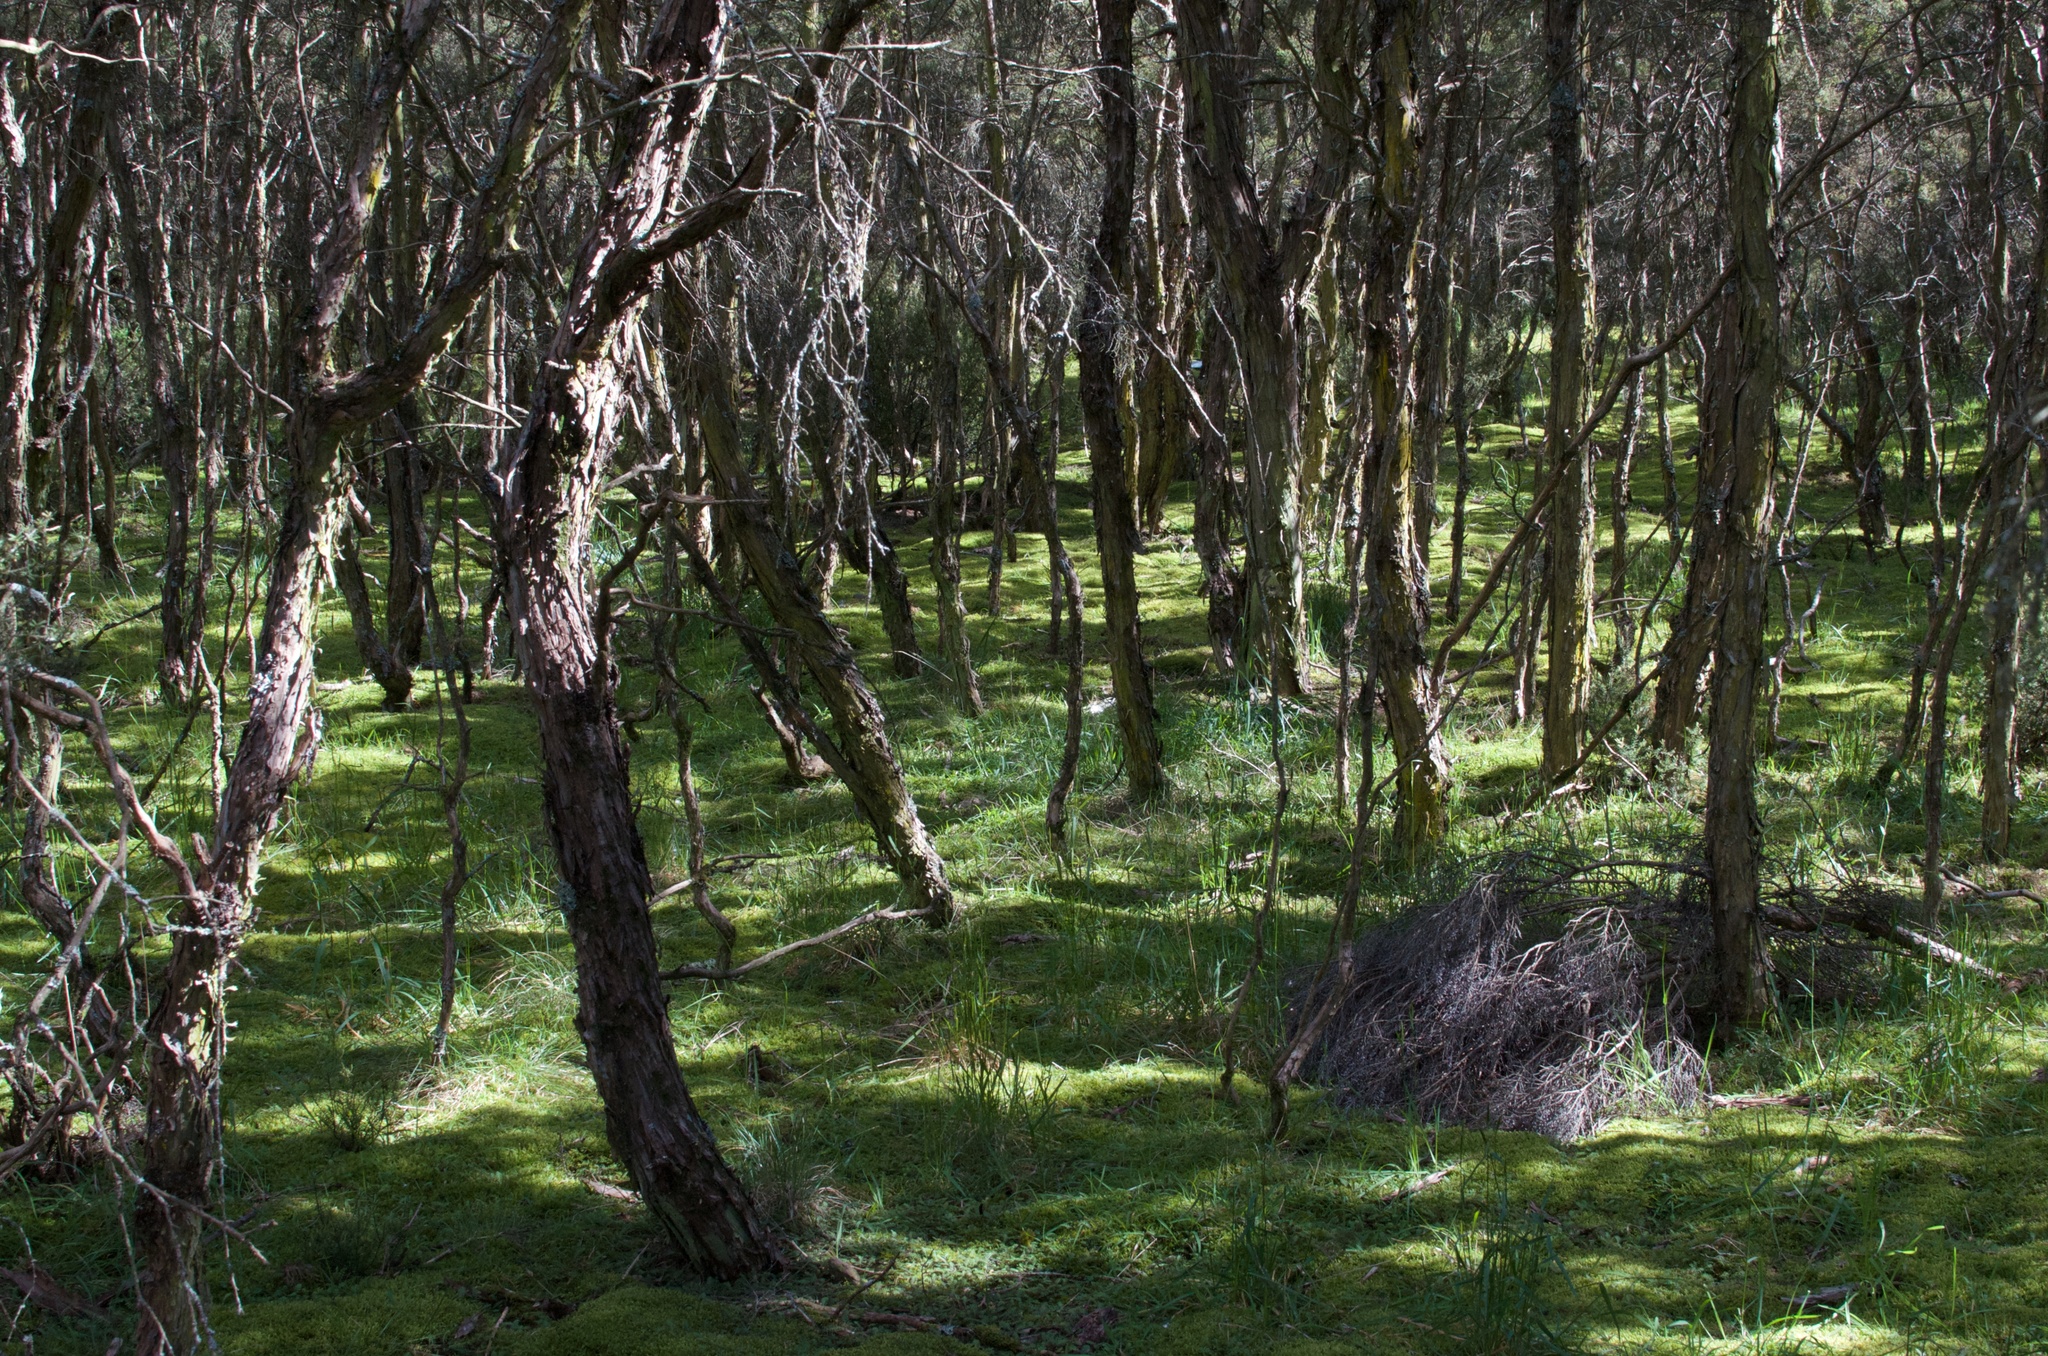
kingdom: Plantae
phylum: Tracheophyta
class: Magnoliopsida
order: Myrtales
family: Myrtaceae
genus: Kunzea
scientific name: Kunzea serotina
